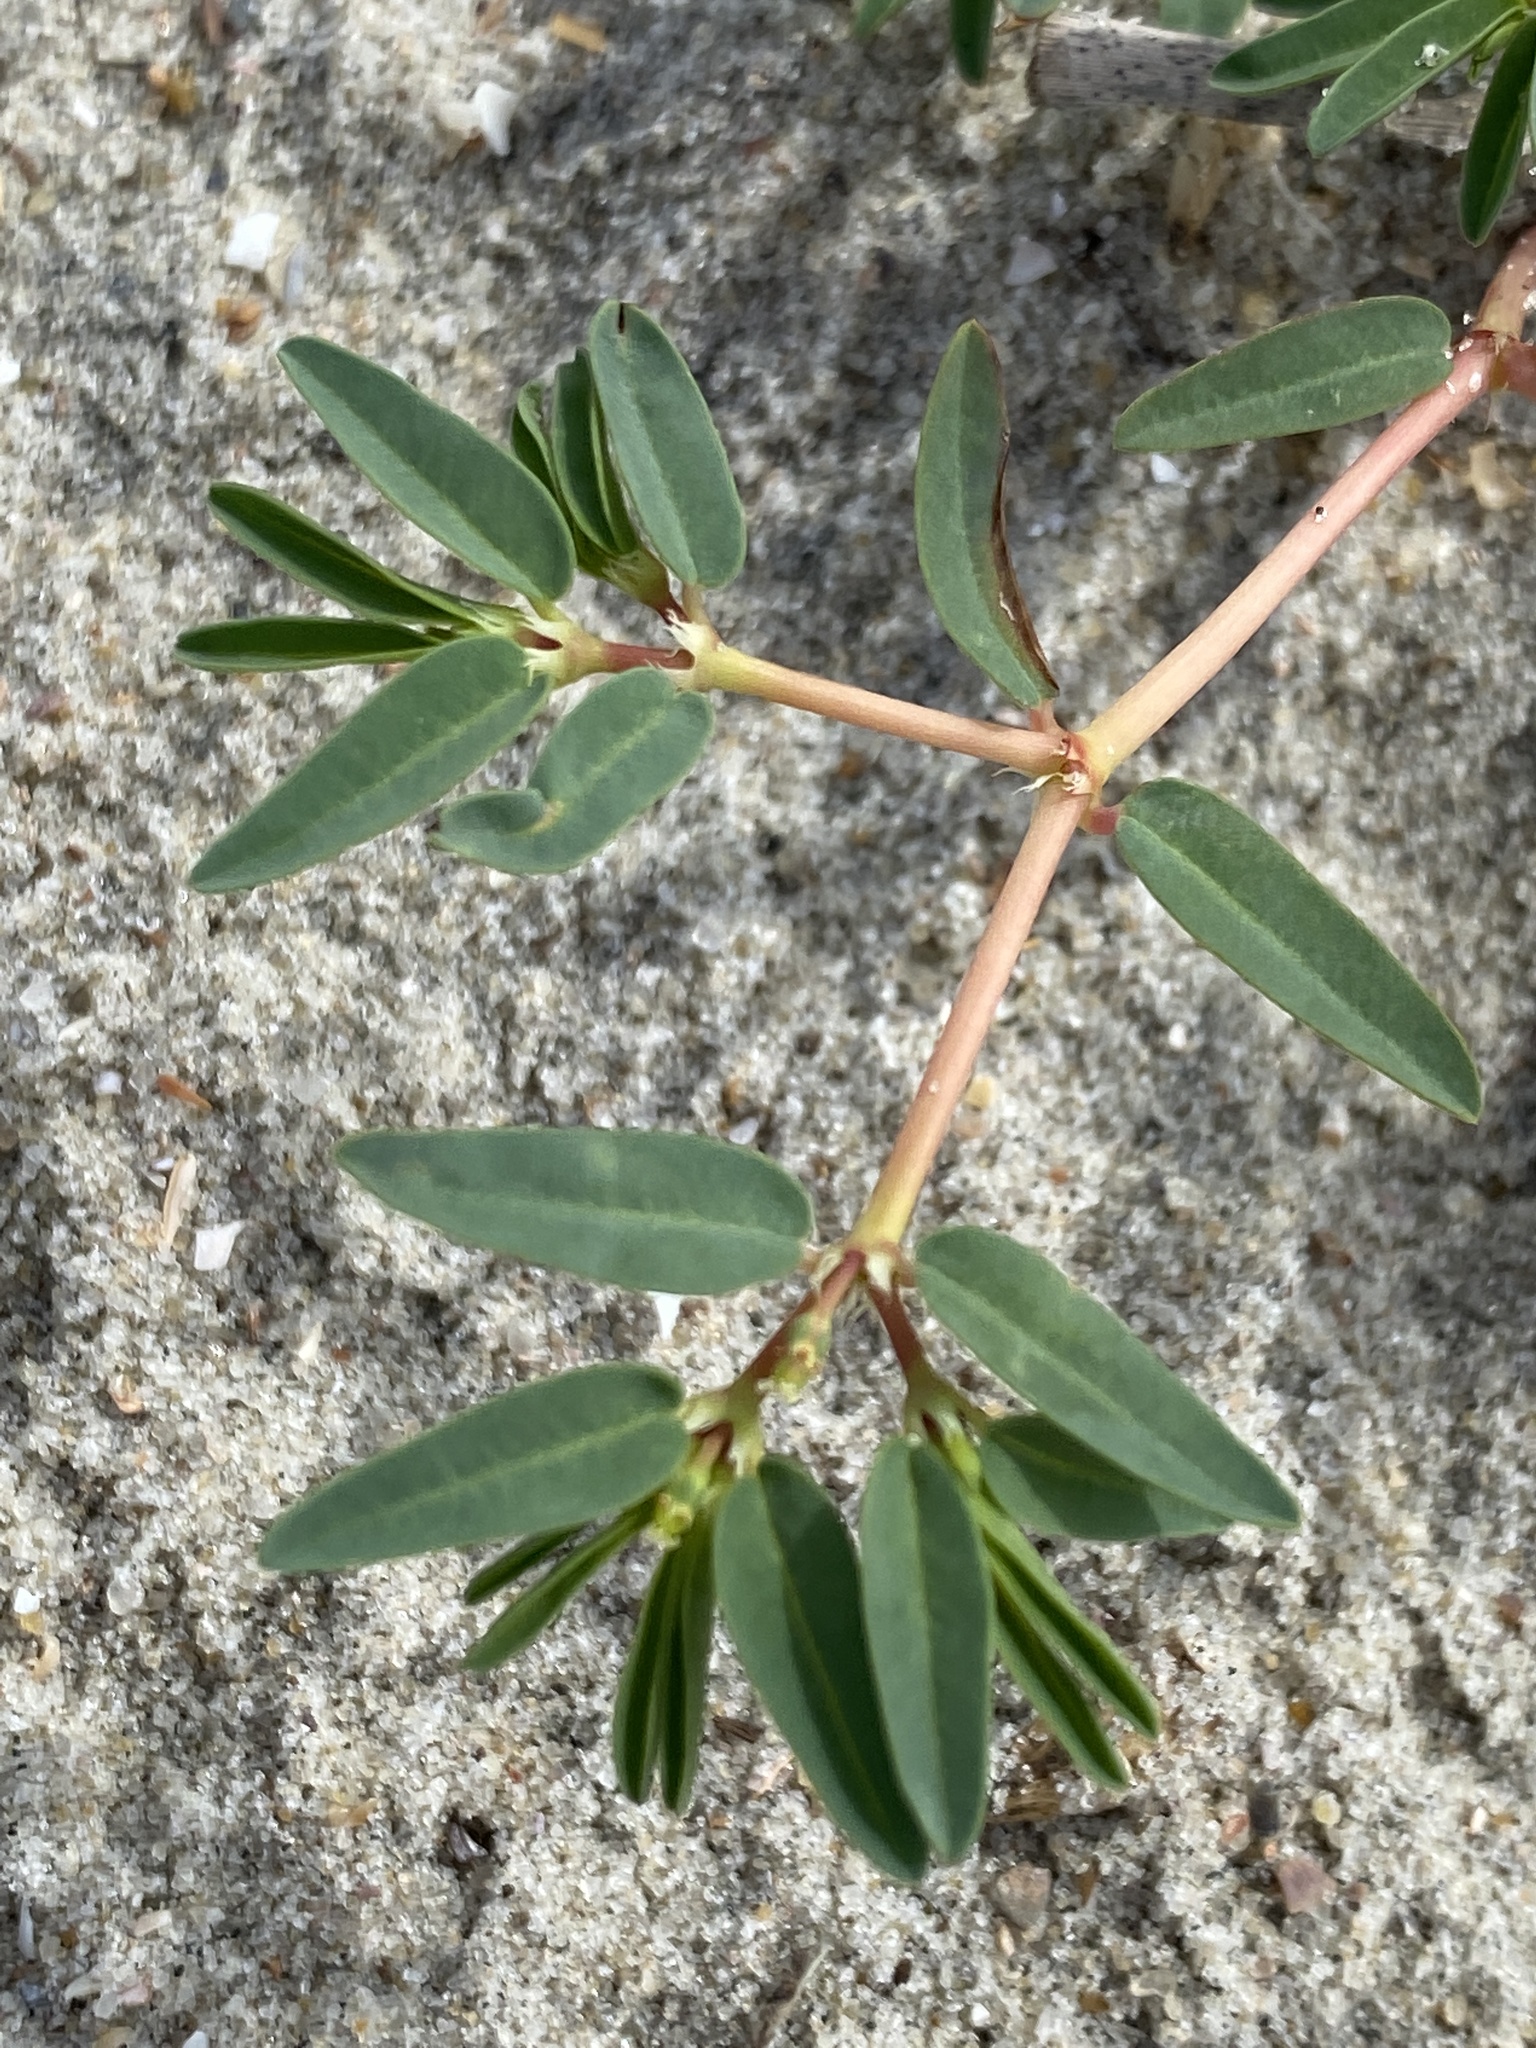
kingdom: Plantae
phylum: Tracheophyta
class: Magnoliopsida
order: Malpighiales
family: Euphorbiaceae
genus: Euphorbia
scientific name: Euphorbia polygonifolia
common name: Knotweed spurge
